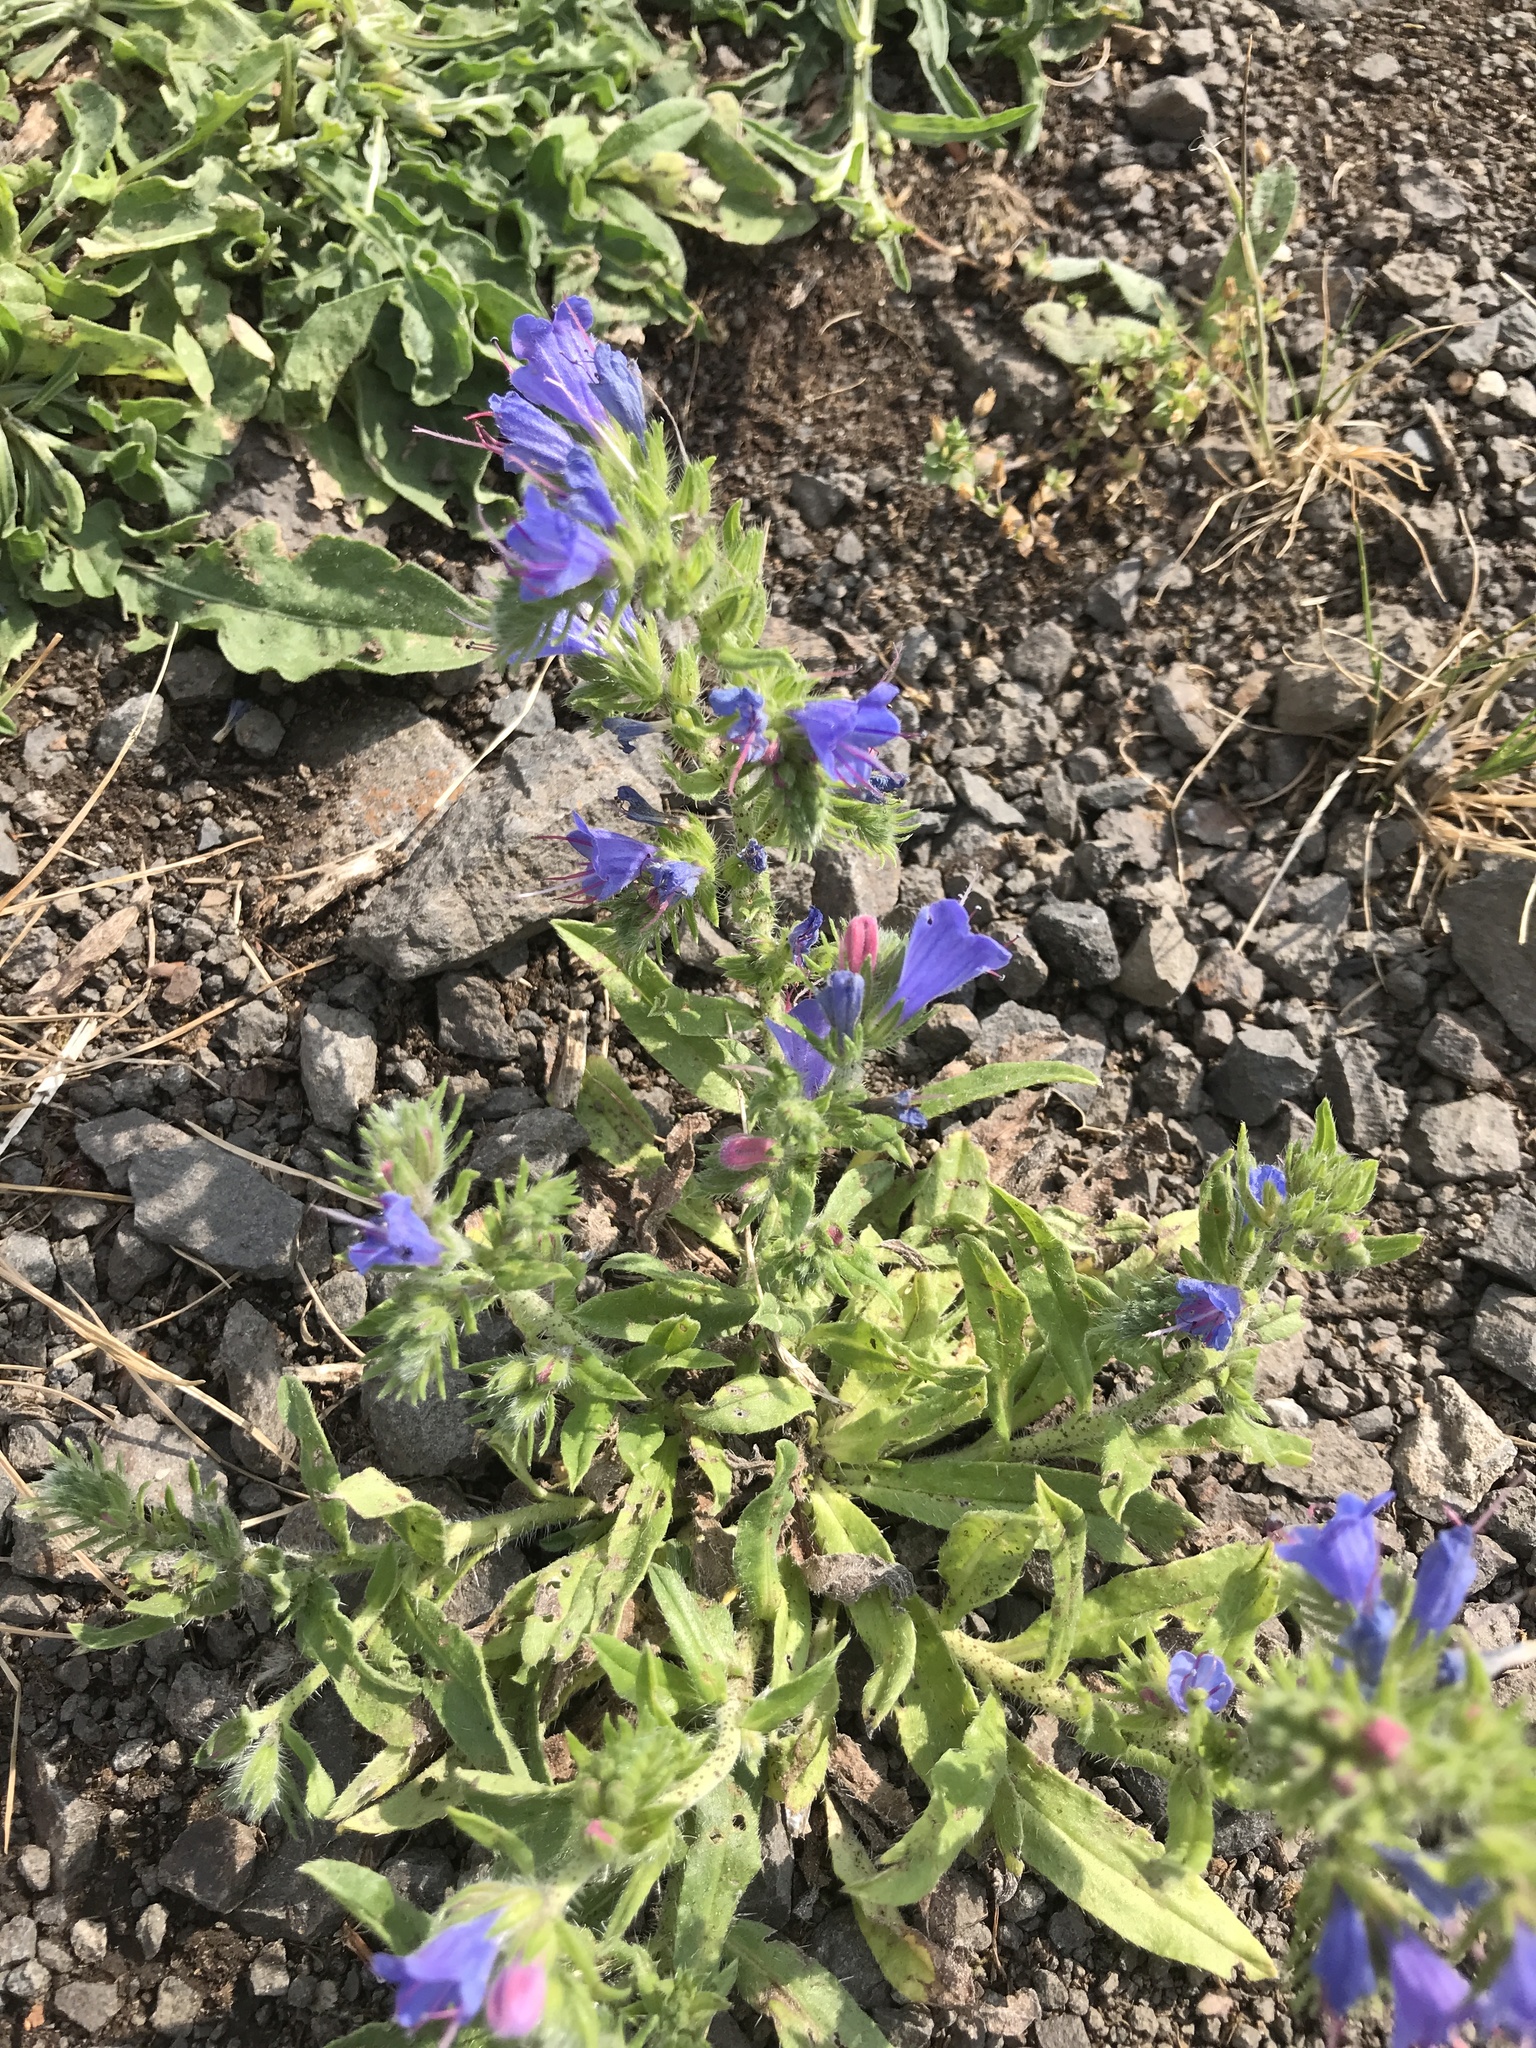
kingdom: Plantae
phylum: Tracheophyta
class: Magnoliopsida
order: Boraginales
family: Boraginaceae
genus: Echium
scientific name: Echium vulgare
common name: Common viper's bugloss
